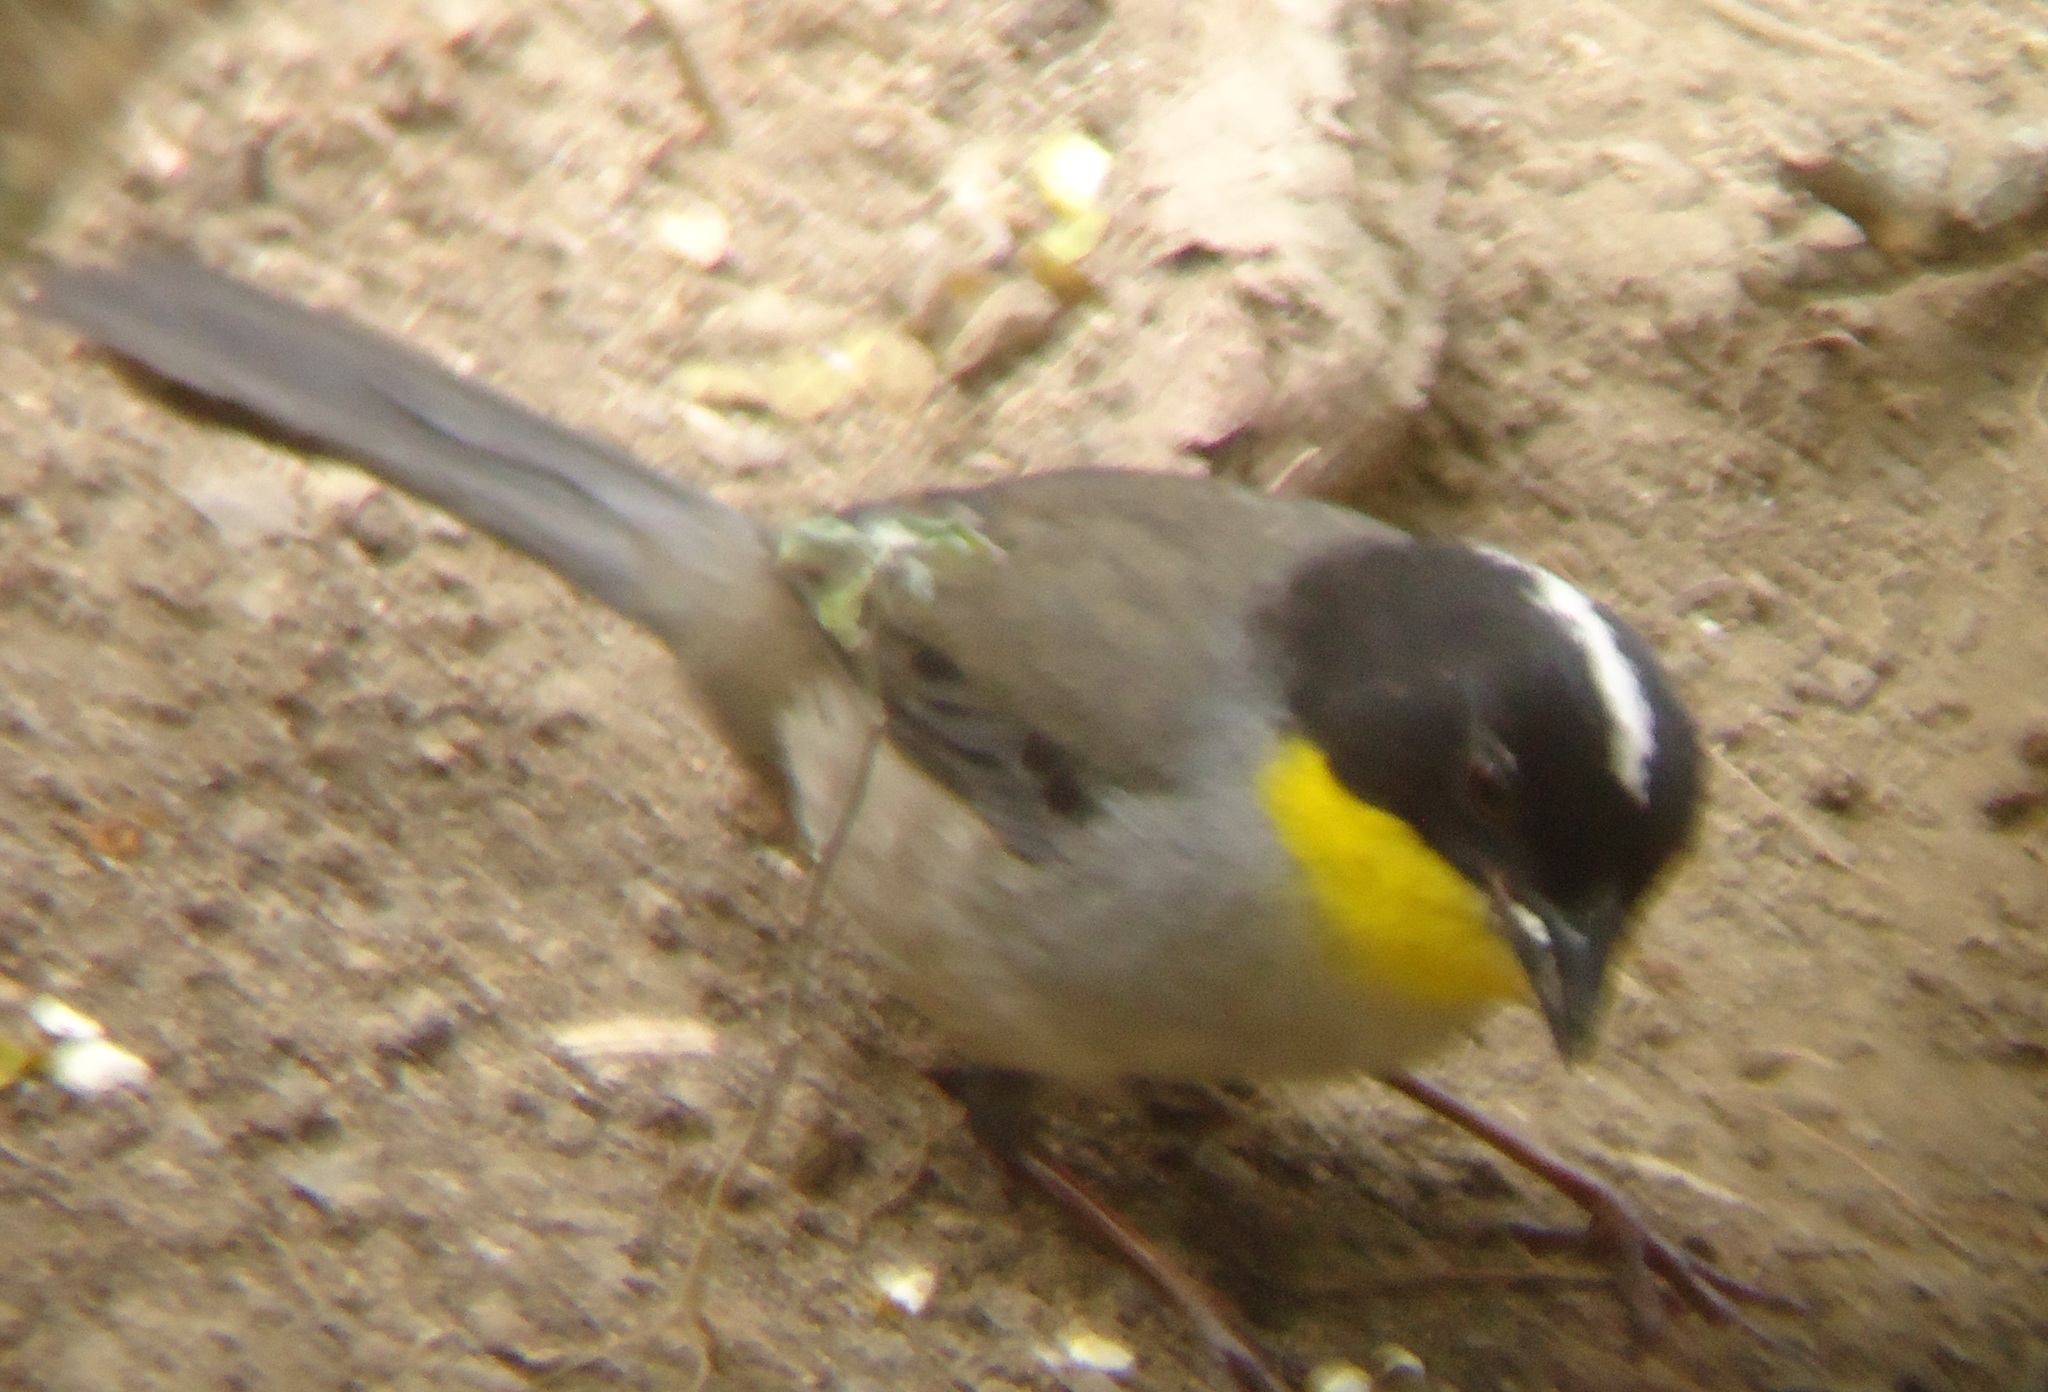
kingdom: Animalia
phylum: Chordata
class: Aves
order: Passeriformes
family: Passerellidae
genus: Atlapetes
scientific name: Atlapetes albinucha
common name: White-naped brush-finch
